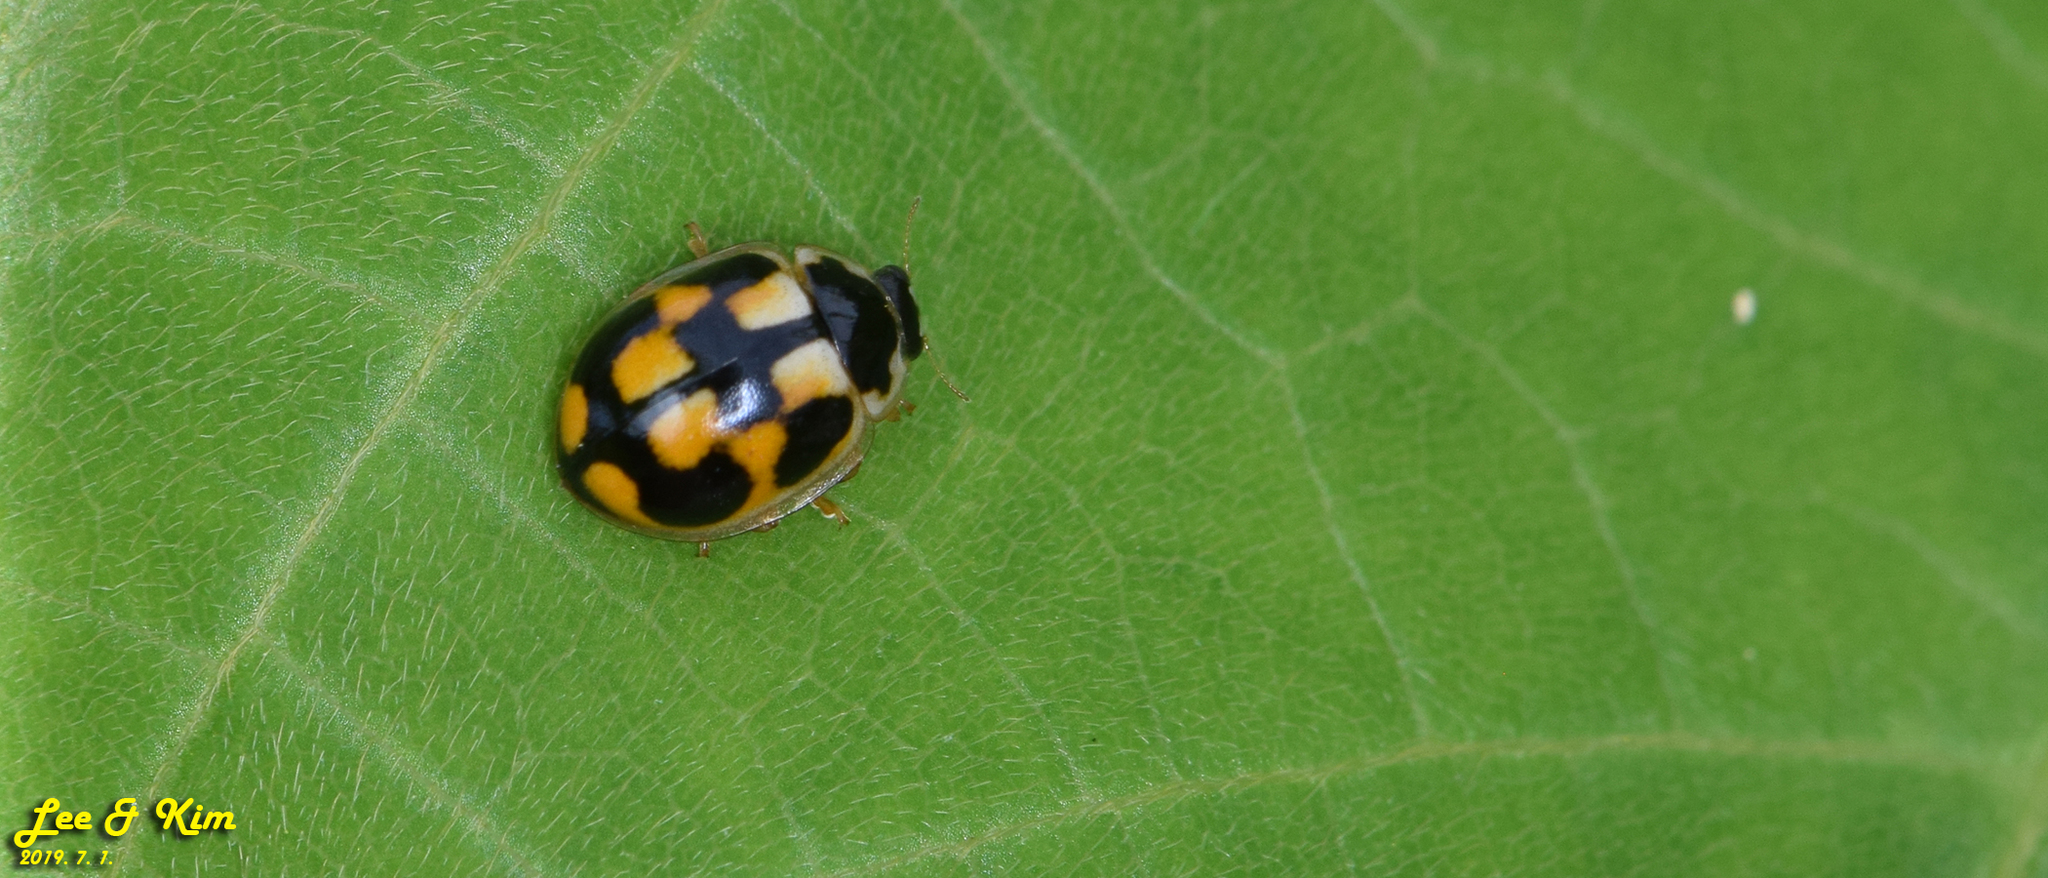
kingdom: Animalia
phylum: Arthropoda
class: Insecta
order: Coleoptera
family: Coccinellidae
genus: Propylea
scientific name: Propylea japonica
